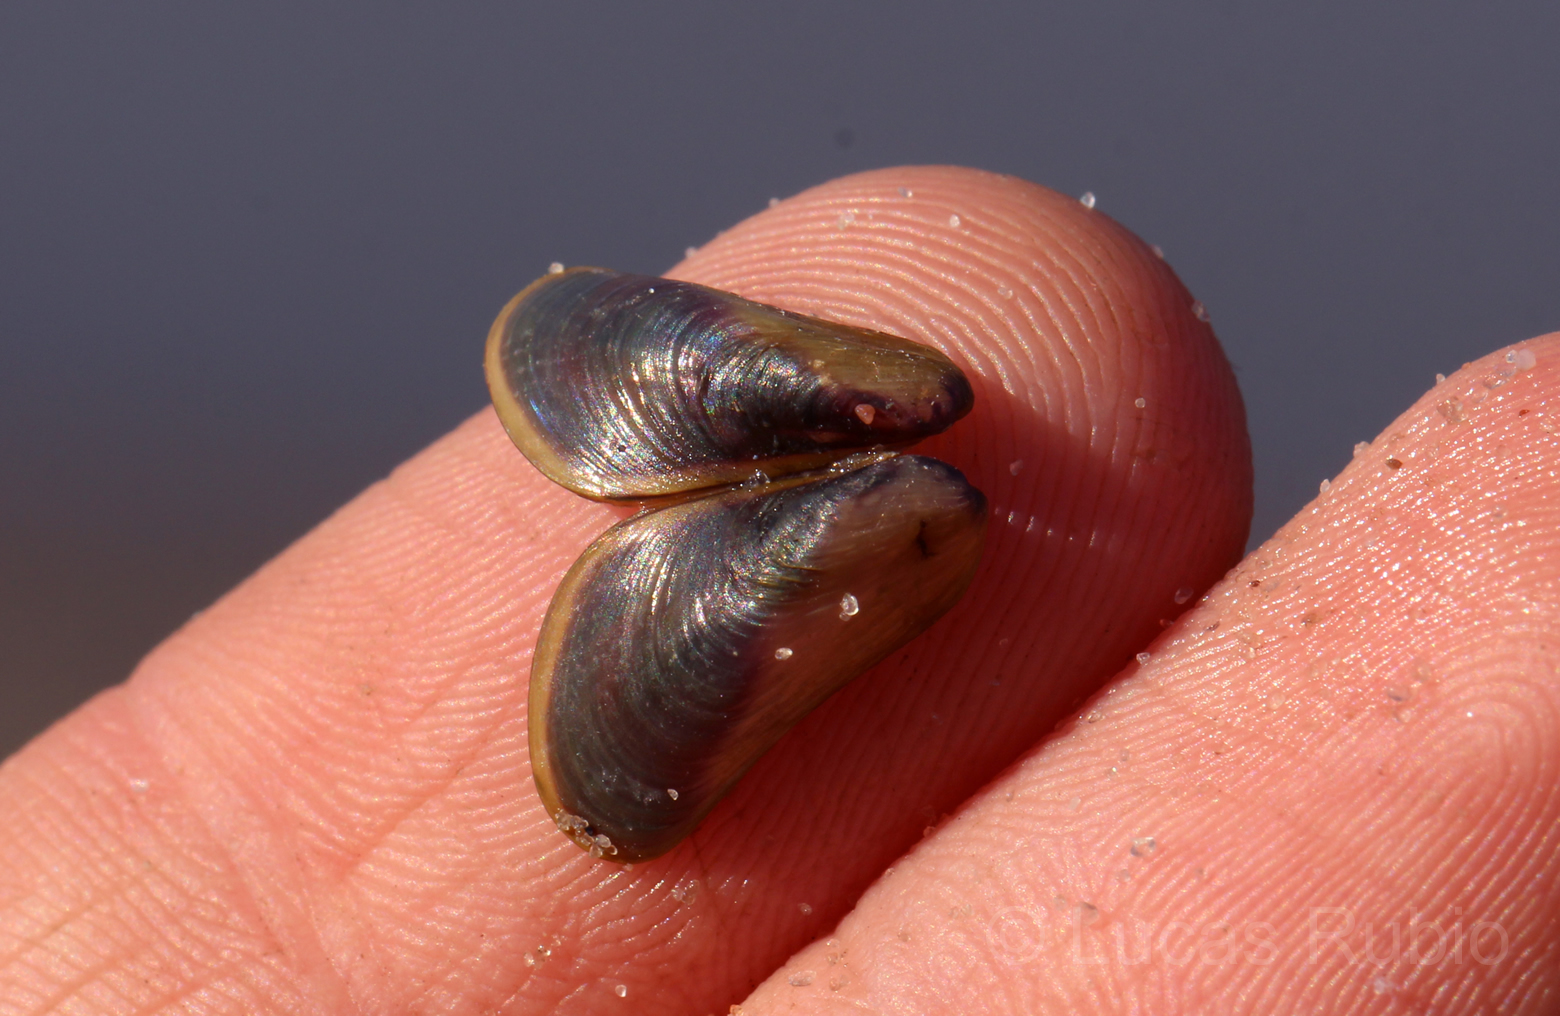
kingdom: Animalia
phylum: Mollusca
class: Bivalvia
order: Mytilida
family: Mytilidae
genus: Limnoperna
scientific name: Limnoperna fortunei
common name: Golden mussel
